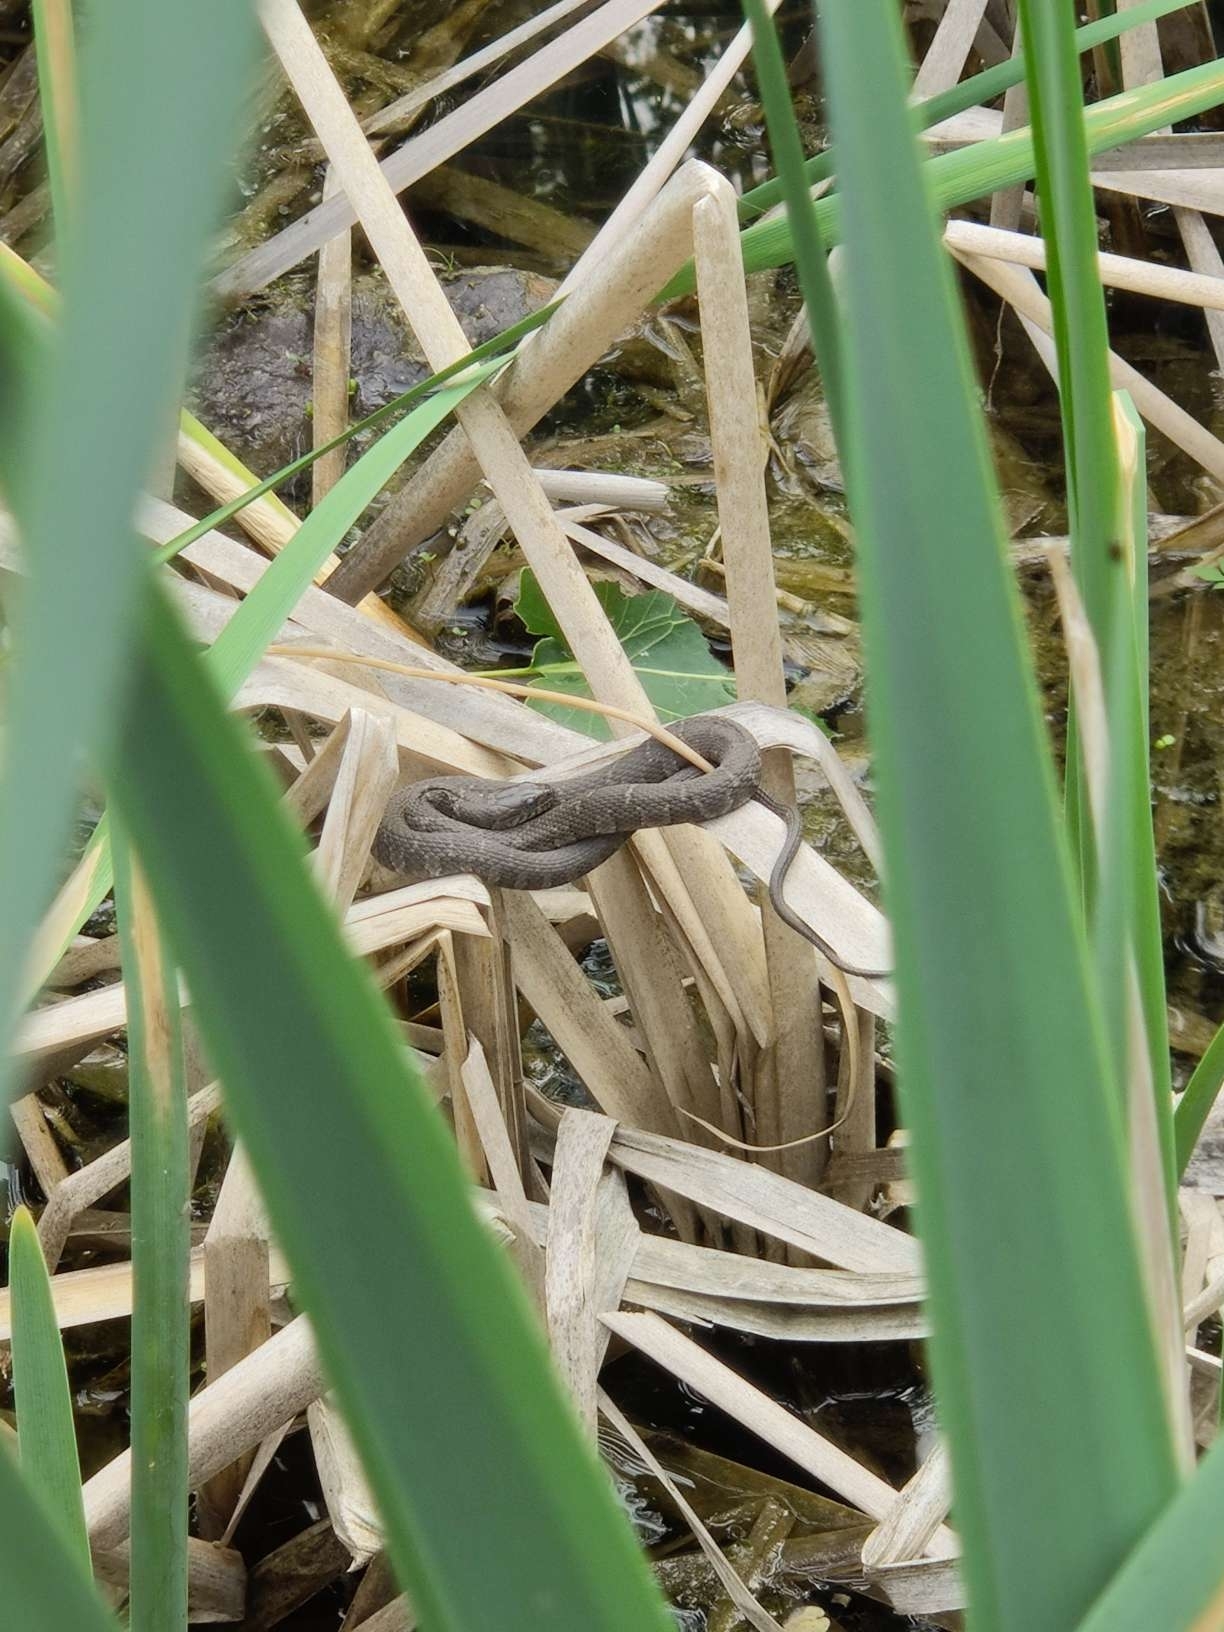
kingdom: Animalia
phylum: Chordata
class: Squamata
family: Colubridae
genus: Nerodia
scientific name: Nerodia sipedon
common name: Northern water snake
